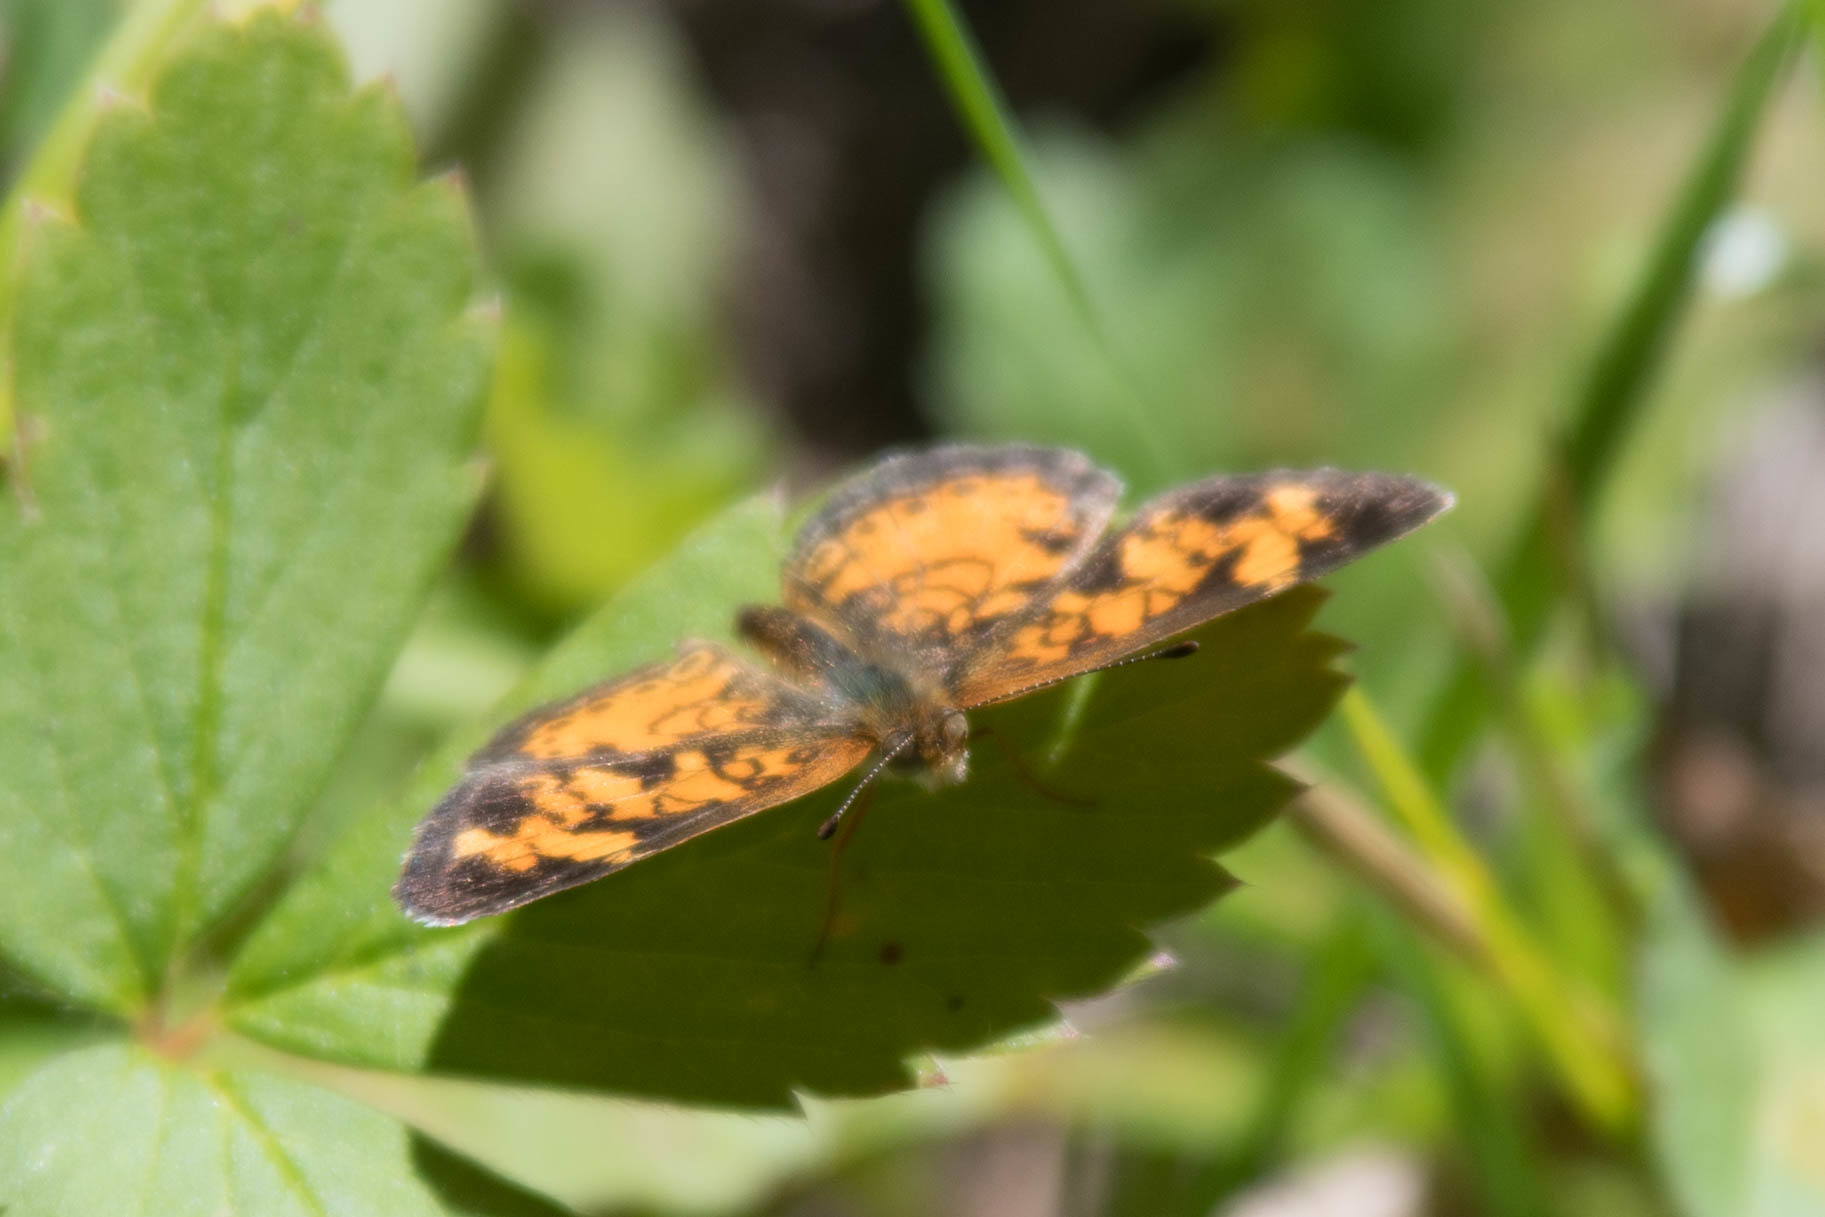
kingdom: Animalia
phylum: Arthropoda
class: Insecta
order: Lepidoptera
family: Nymphalidae
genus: Phyciodes
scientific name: Phyciodes tharos
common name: Pearl crescent
